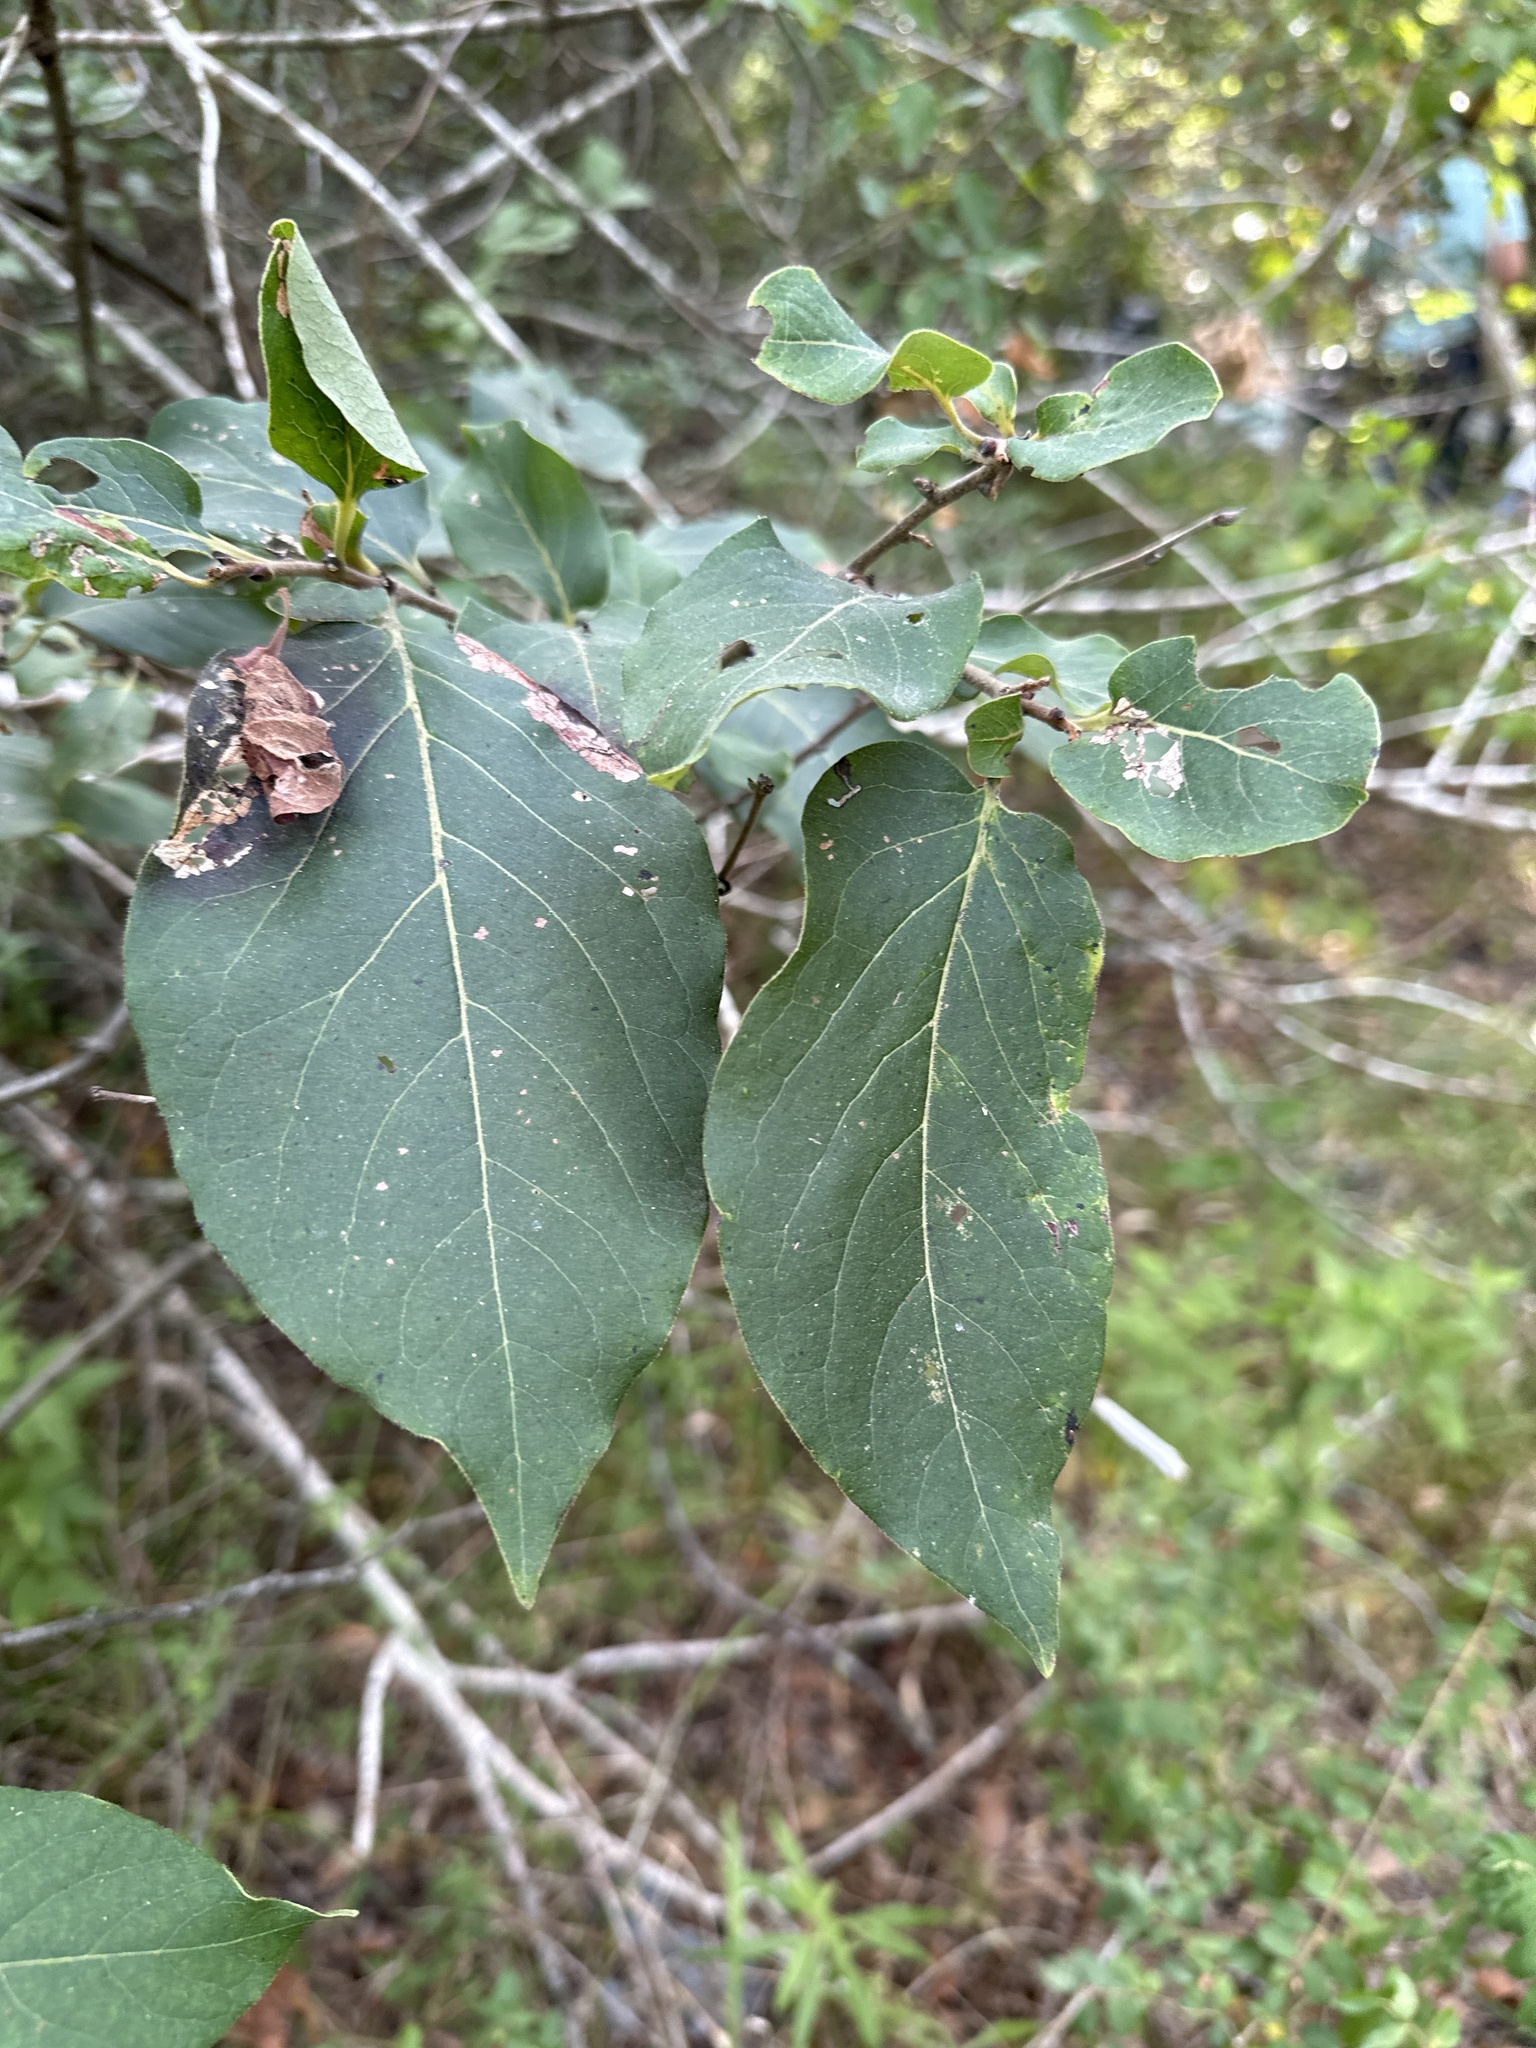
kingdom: Plantae
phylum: Tracheophyta
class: Magnoliopsida
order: Ericales
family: Ebenaceae
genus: Diospyros
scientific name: Diospyros virginiana
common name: Persimmon
